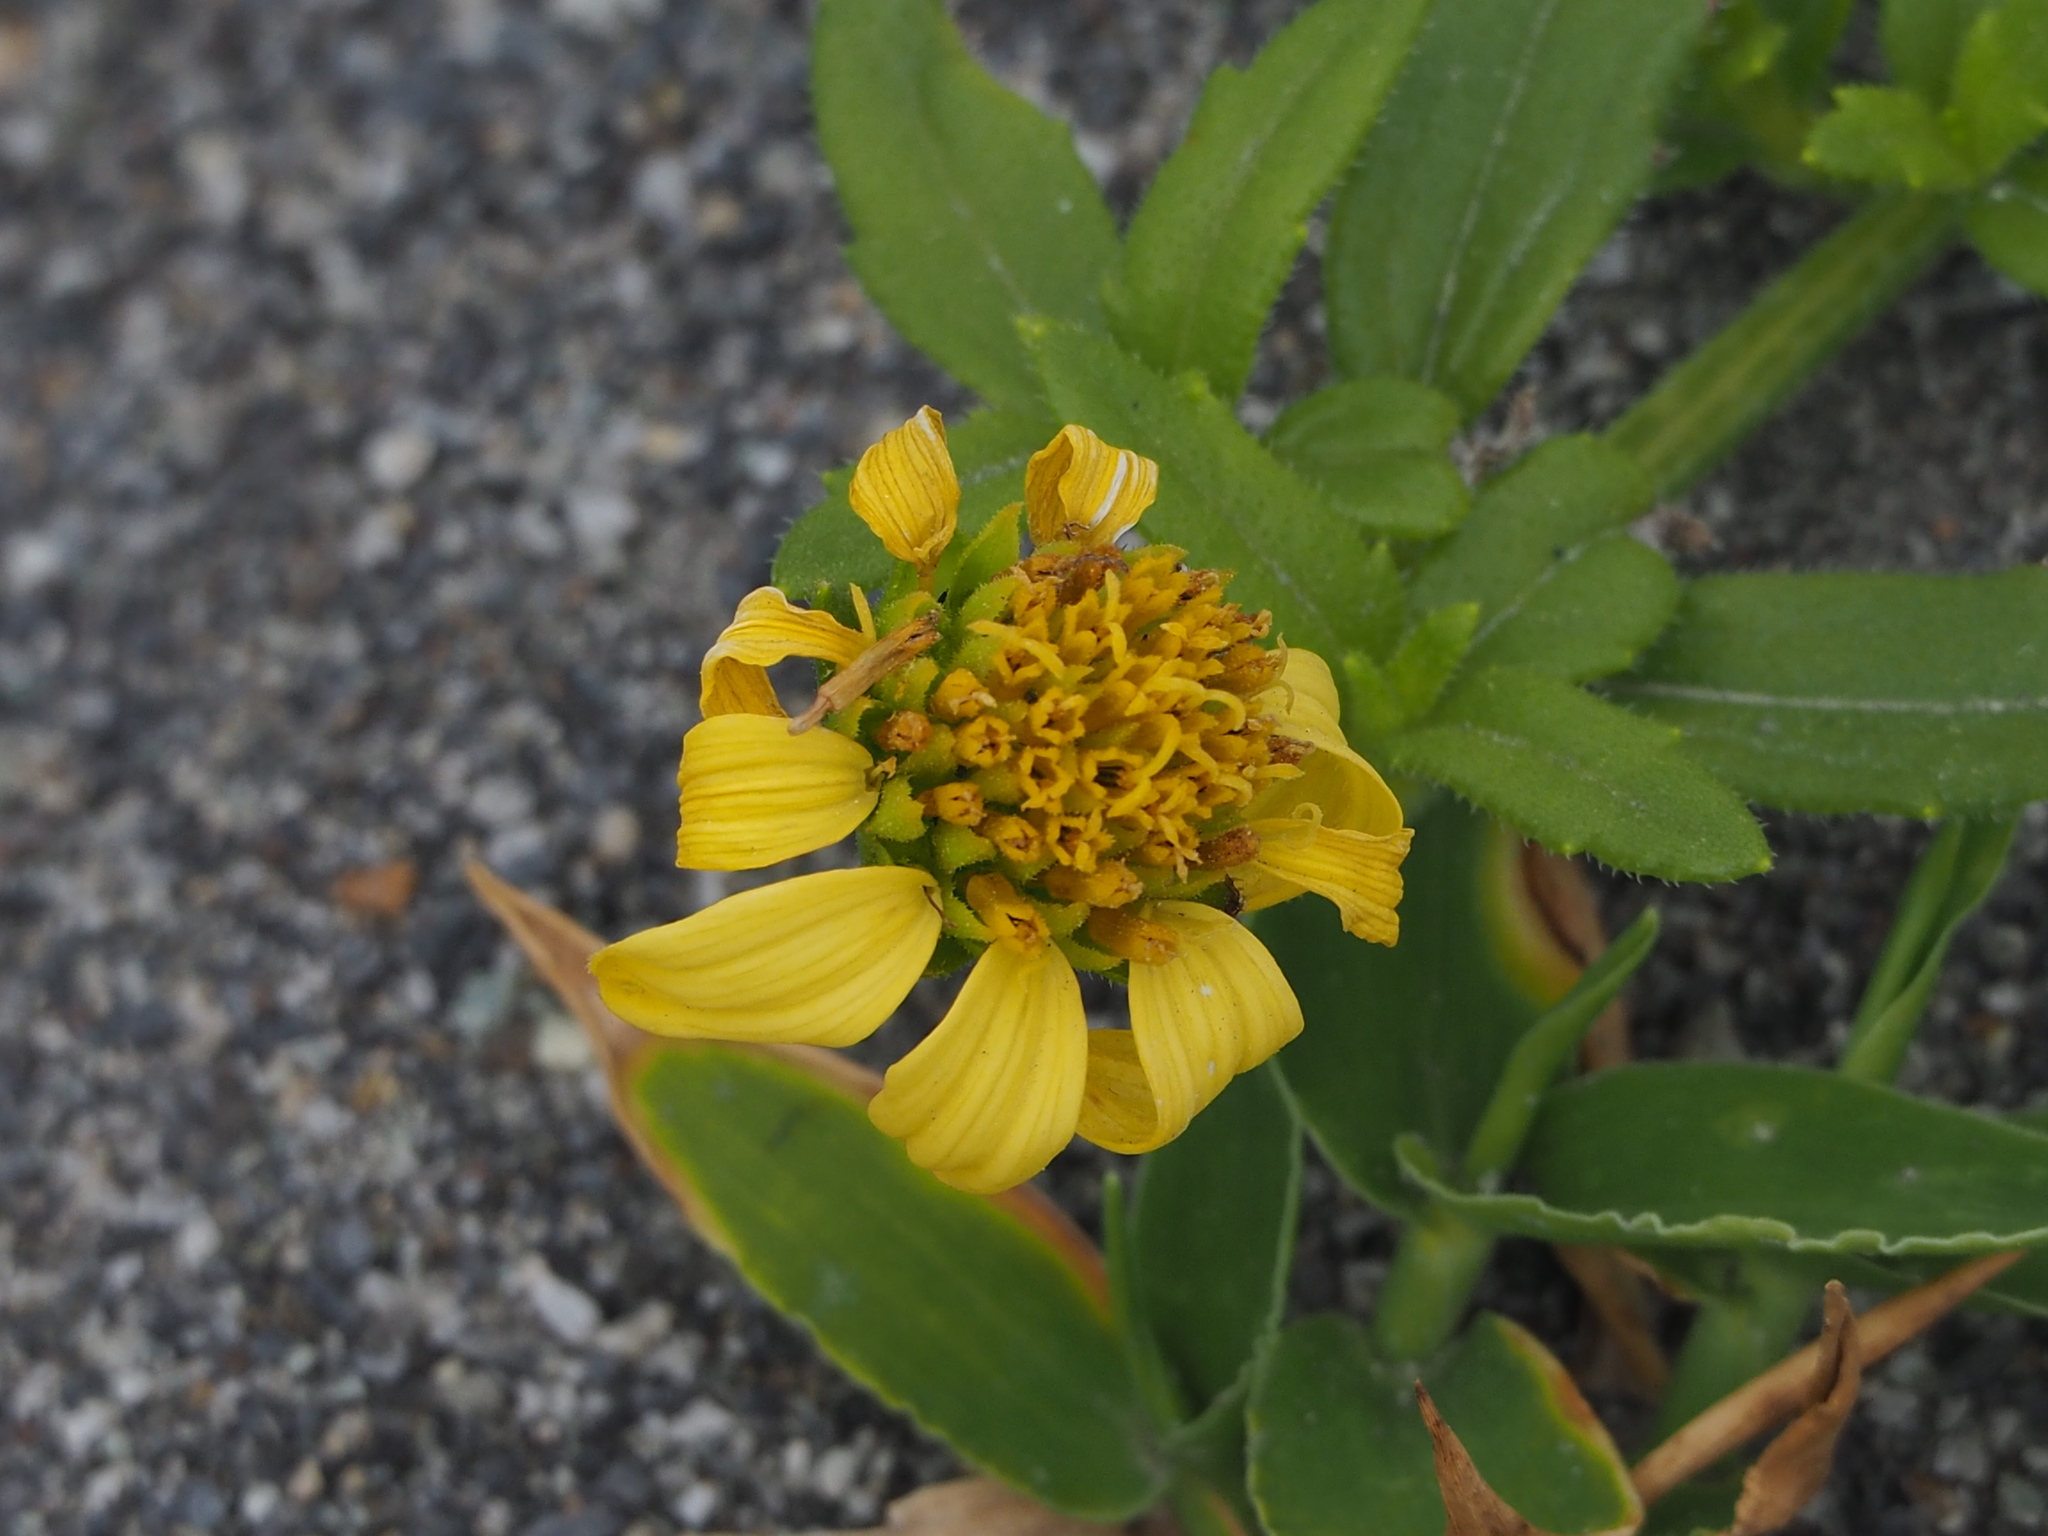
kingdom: Plantae
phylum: Tracheophyta
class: Magnoliopsida
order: Asterales
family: Asteraceae
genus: Melanthera
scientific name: Melanthera prostrata
